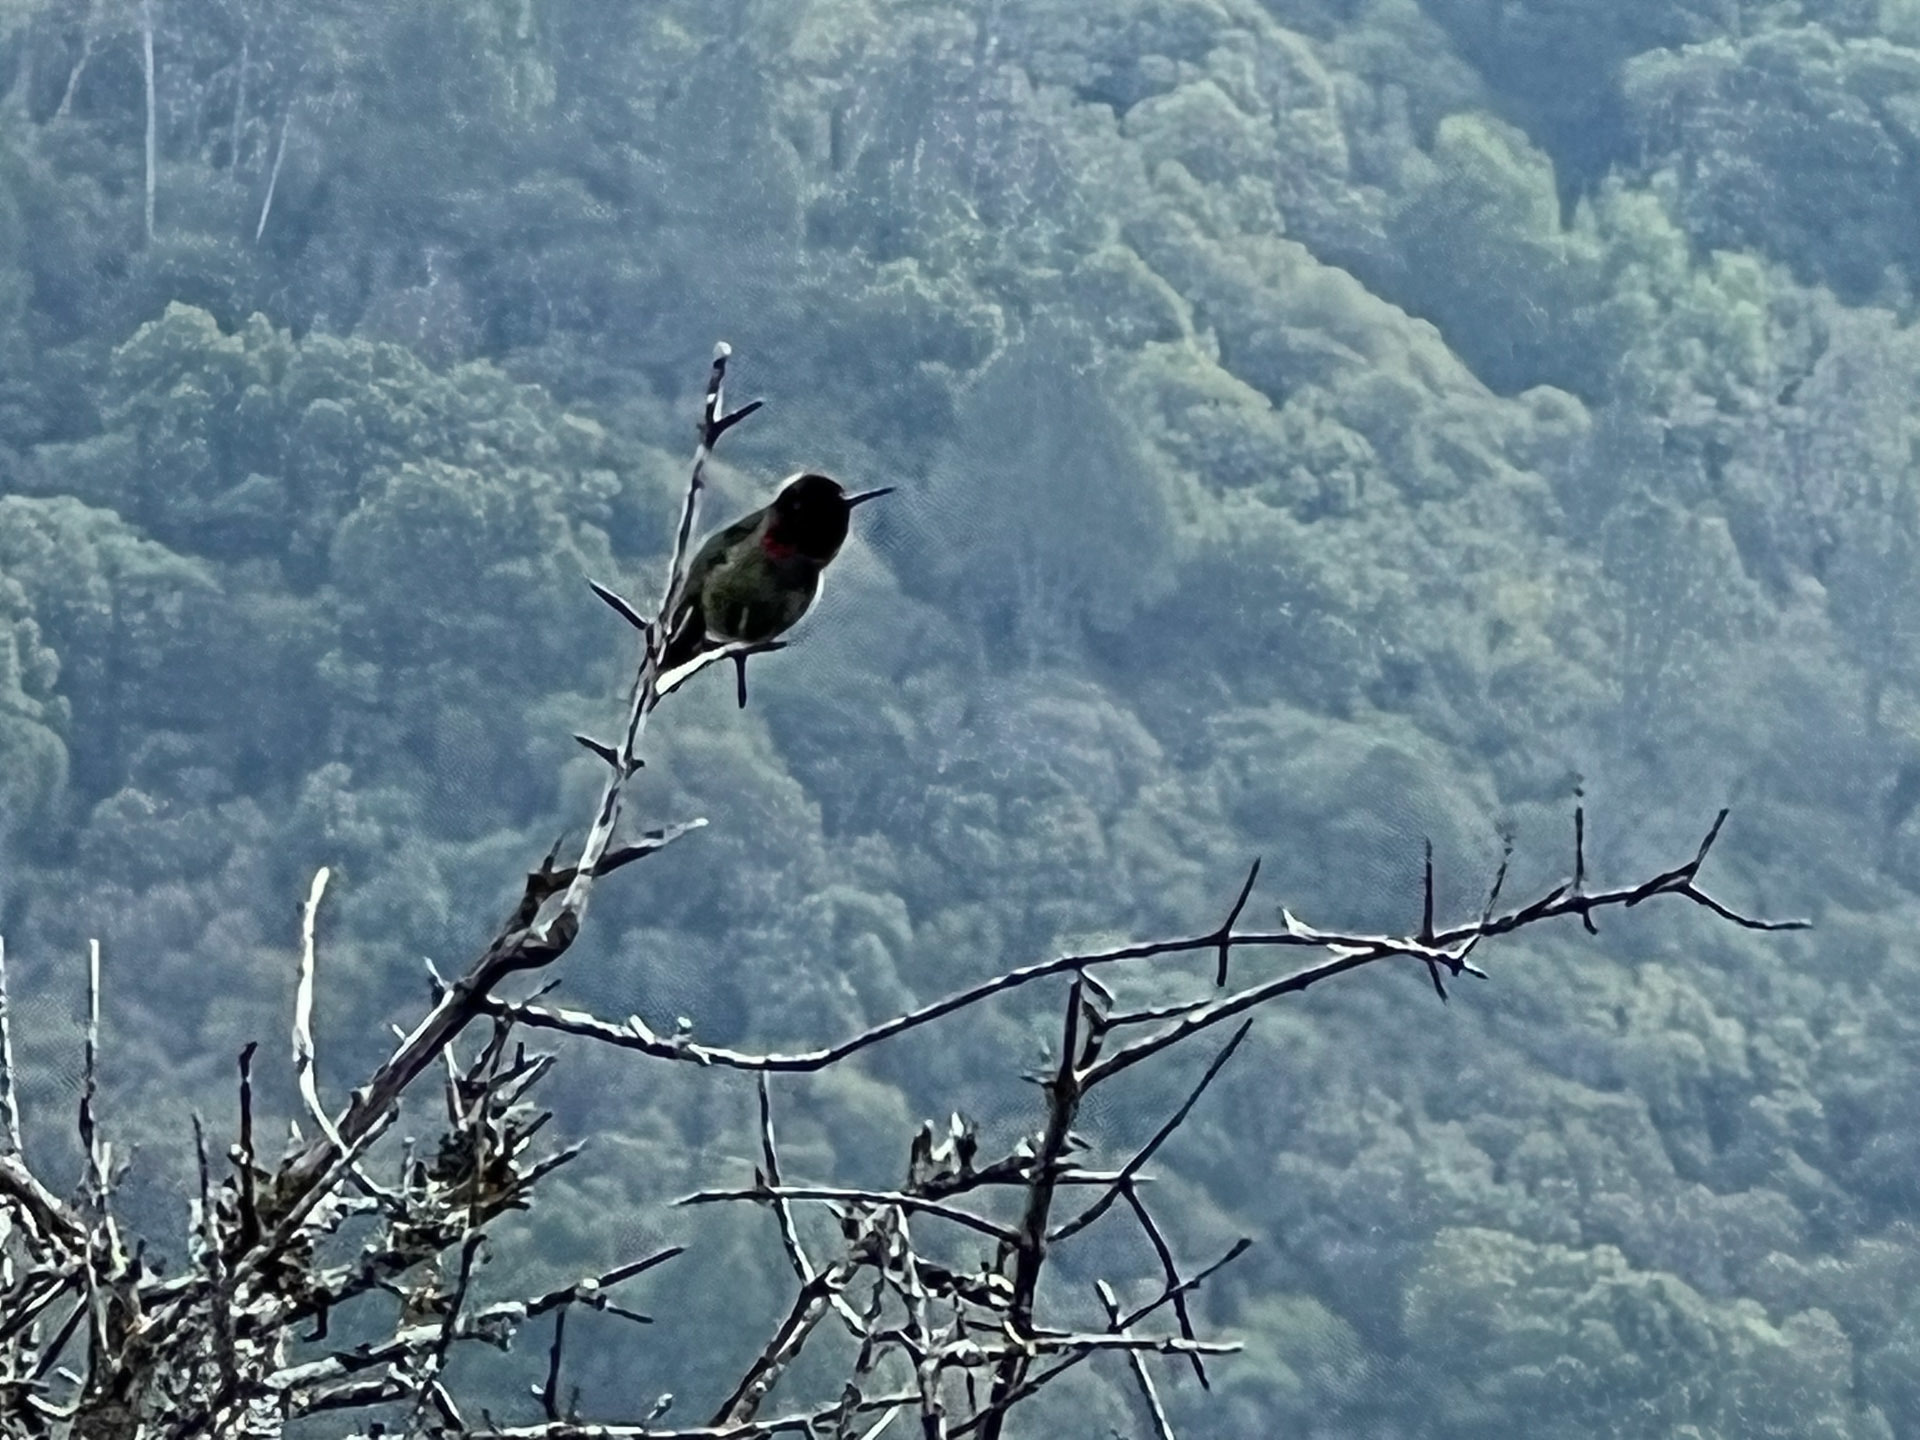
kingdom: Animalia
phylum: Chordata
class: Aves
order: Apodiformes
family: Trochilidae
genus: Calypte
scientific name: Calypte anna
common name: Anna's hummingbird
